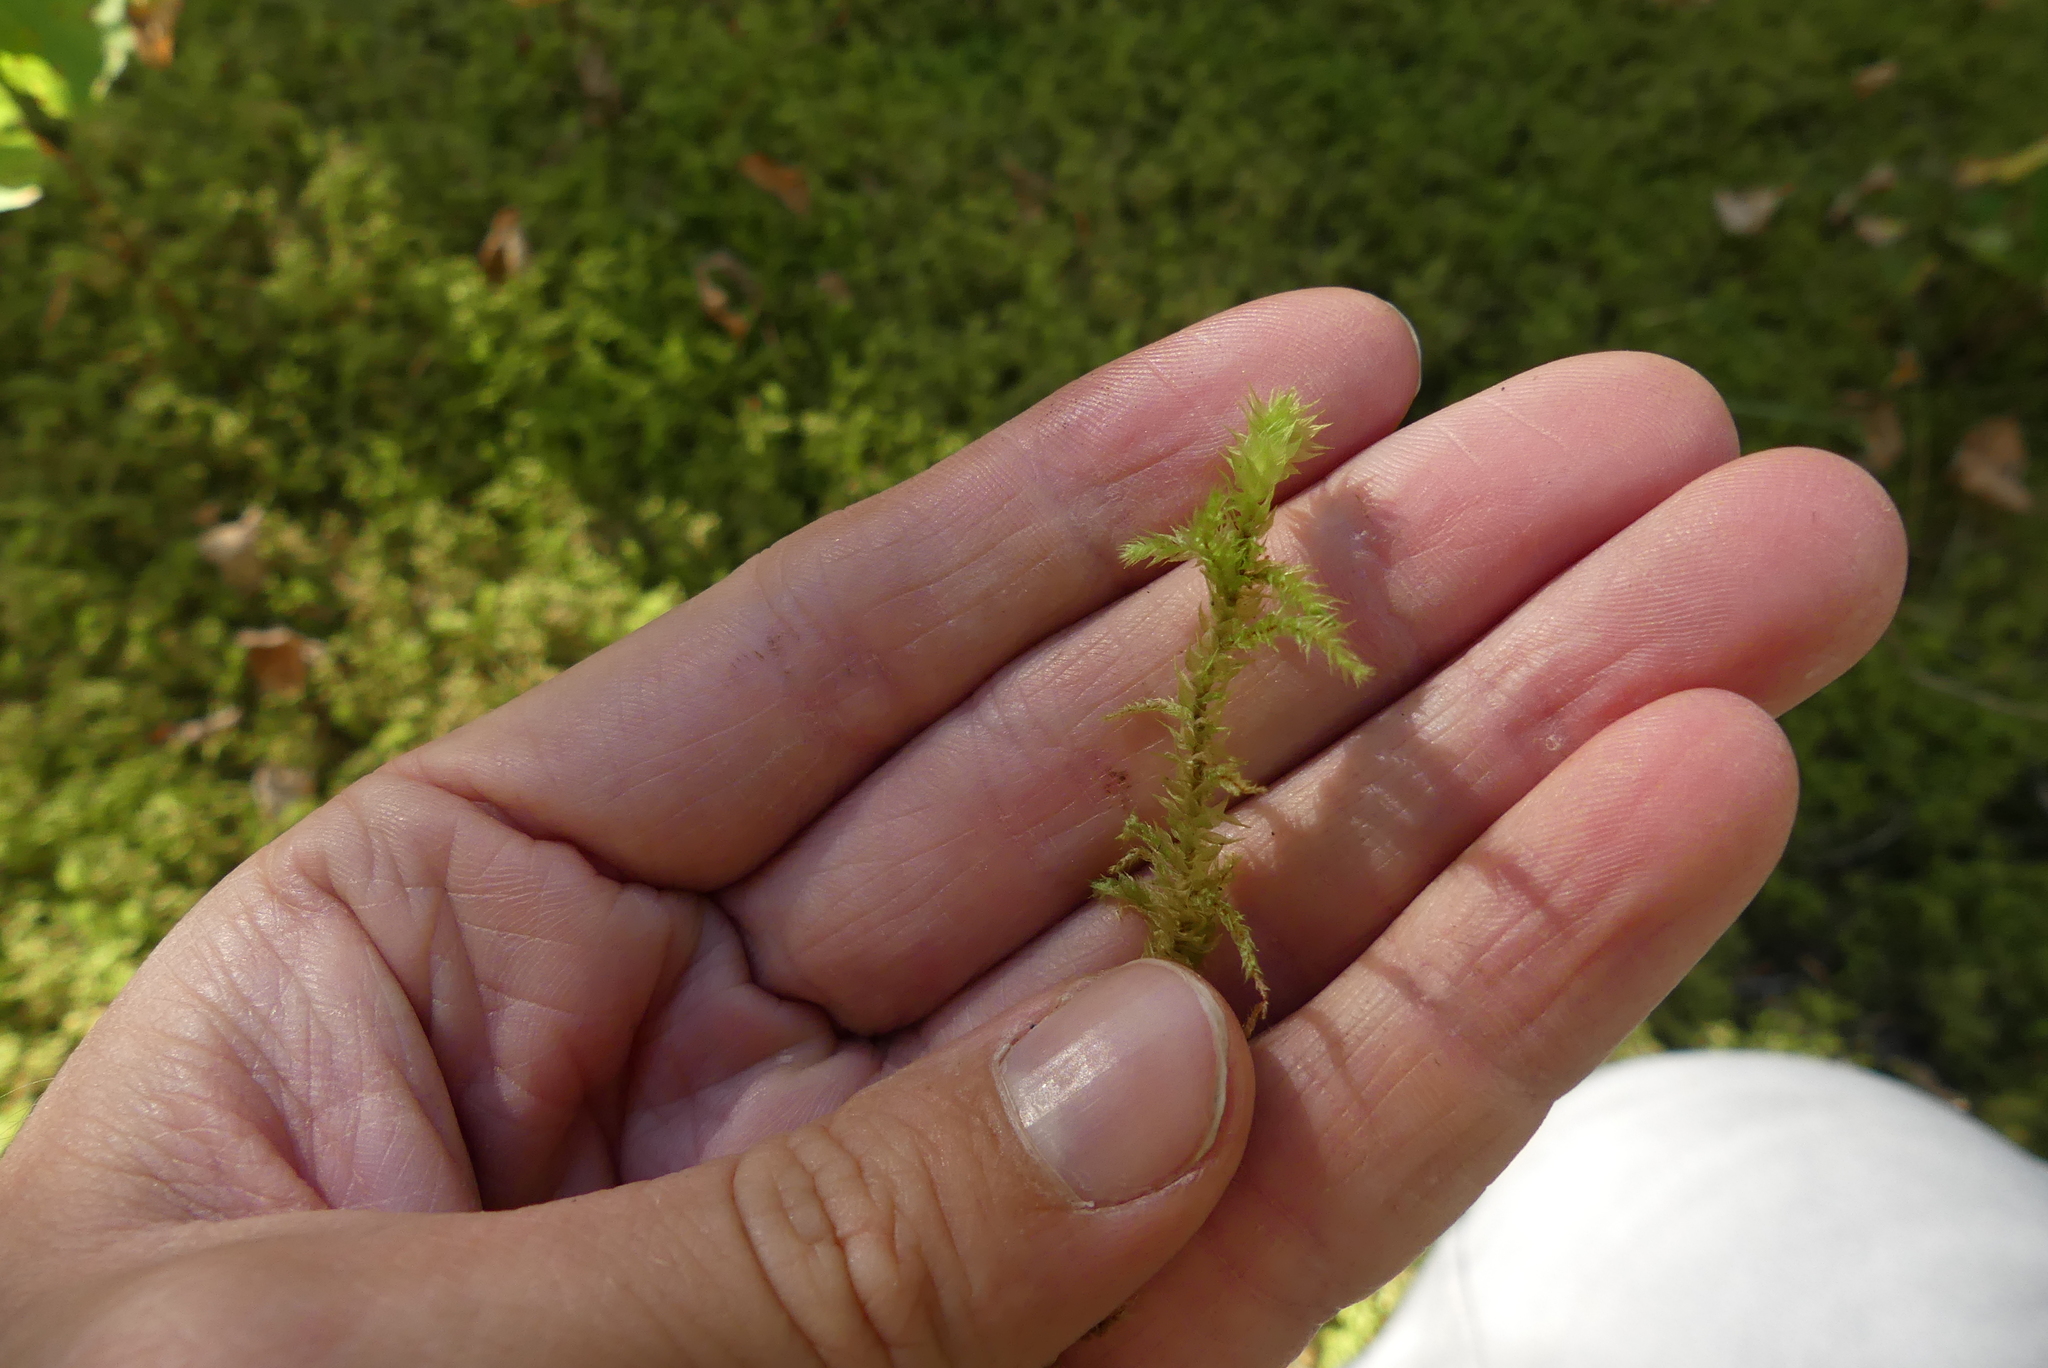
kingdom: Plantae
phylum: Bryophyta
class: Bryopsida
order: Hypnales
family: Hylocomiaceae
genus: Hylocomiadelphus
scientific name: Hylocomiadelphus triquetrus
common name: Rough goose neck moss
